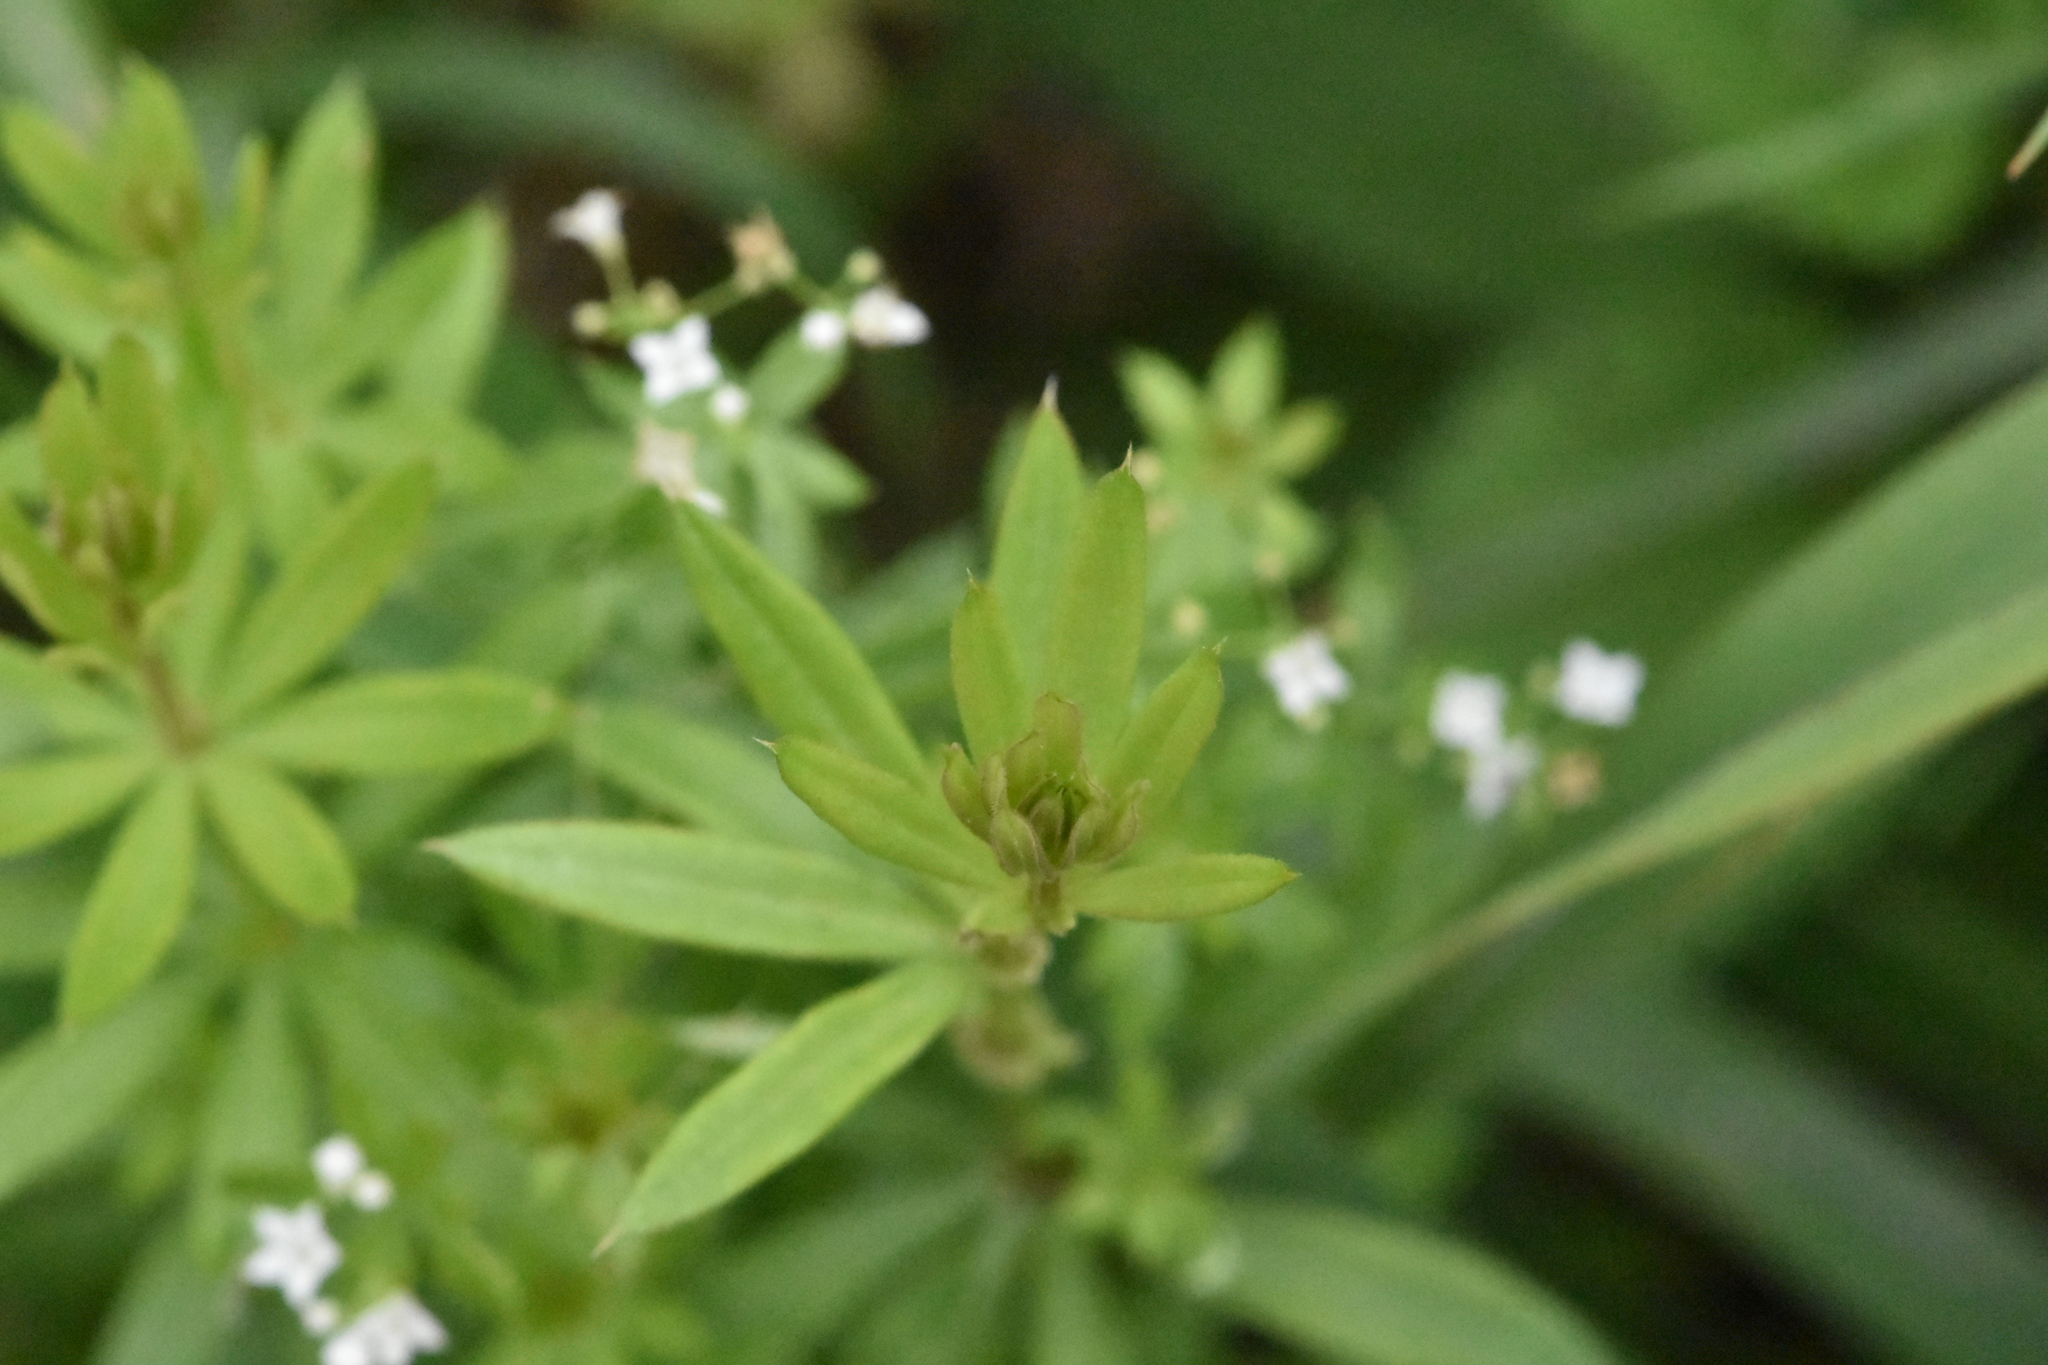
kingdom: Plantae
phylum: Tracheophyta
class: Magnoliopsida
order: Gentianales
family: Rubiaceae
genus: Galium
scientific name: Galium rivale
